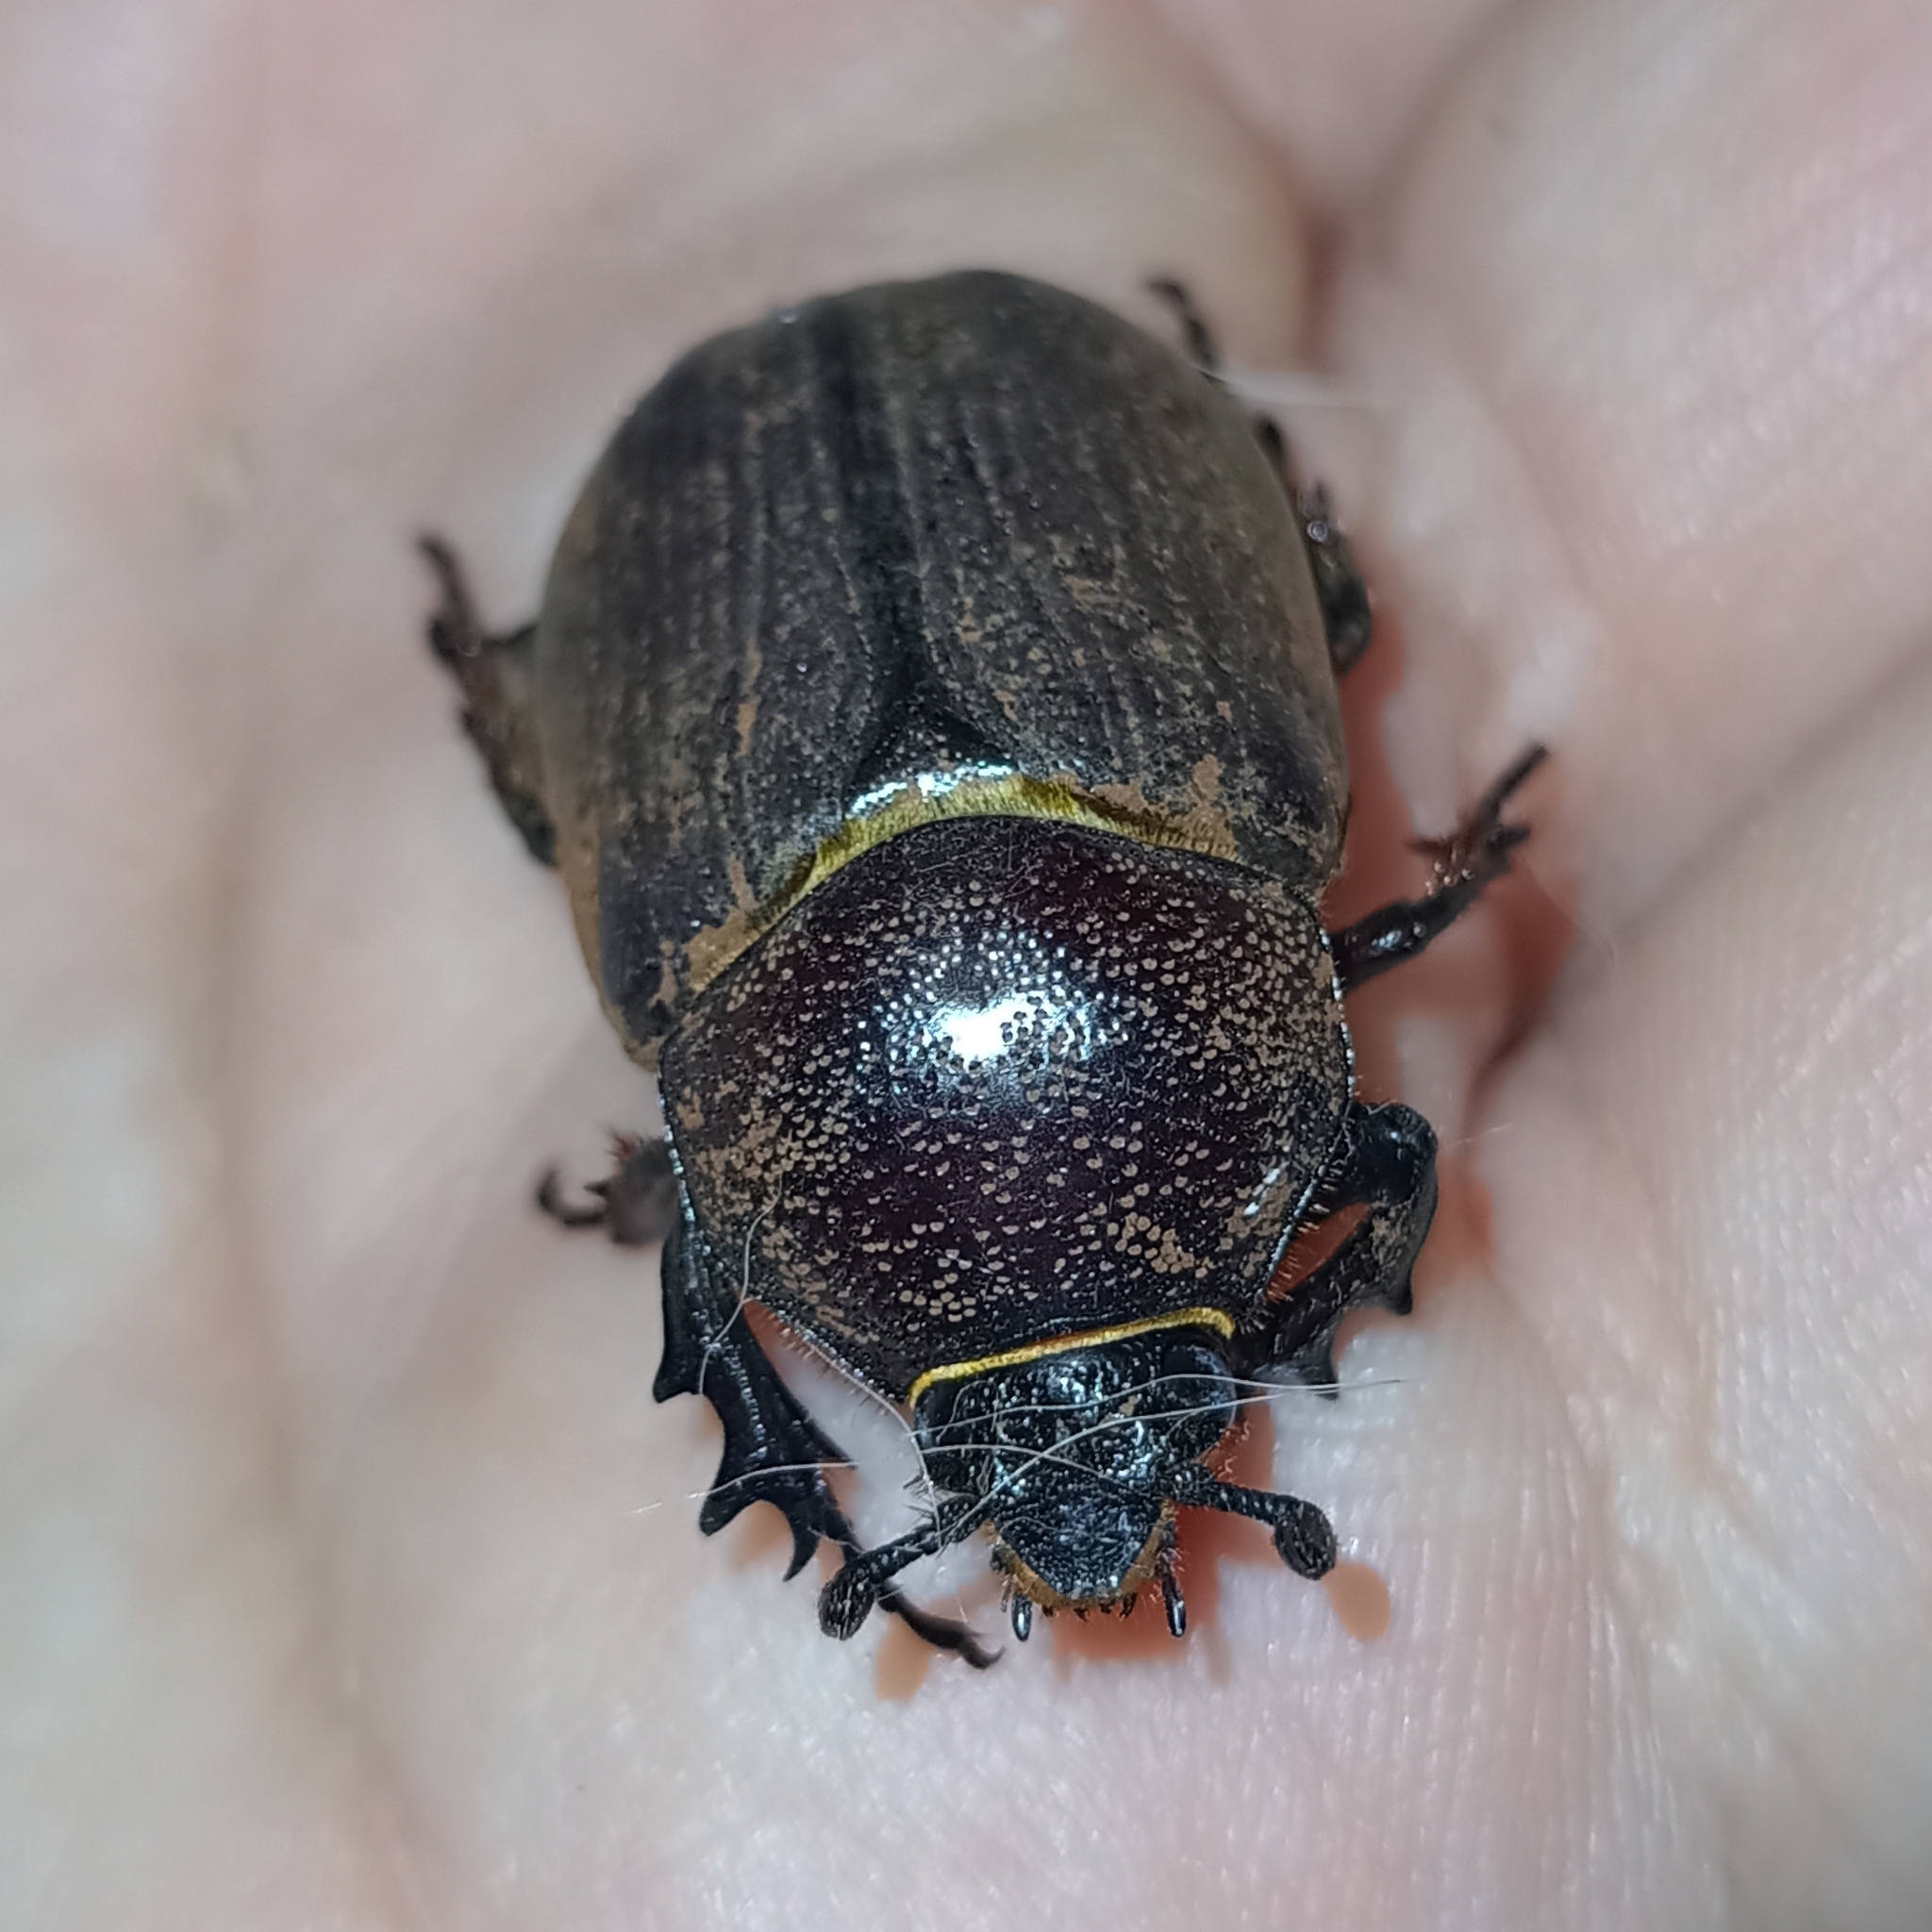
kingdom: Animalia
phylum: Arthropoda
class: Insecta
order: Coleoptera
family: Scarabaeidae
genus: Coelosis
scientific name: Coelosis biloba
